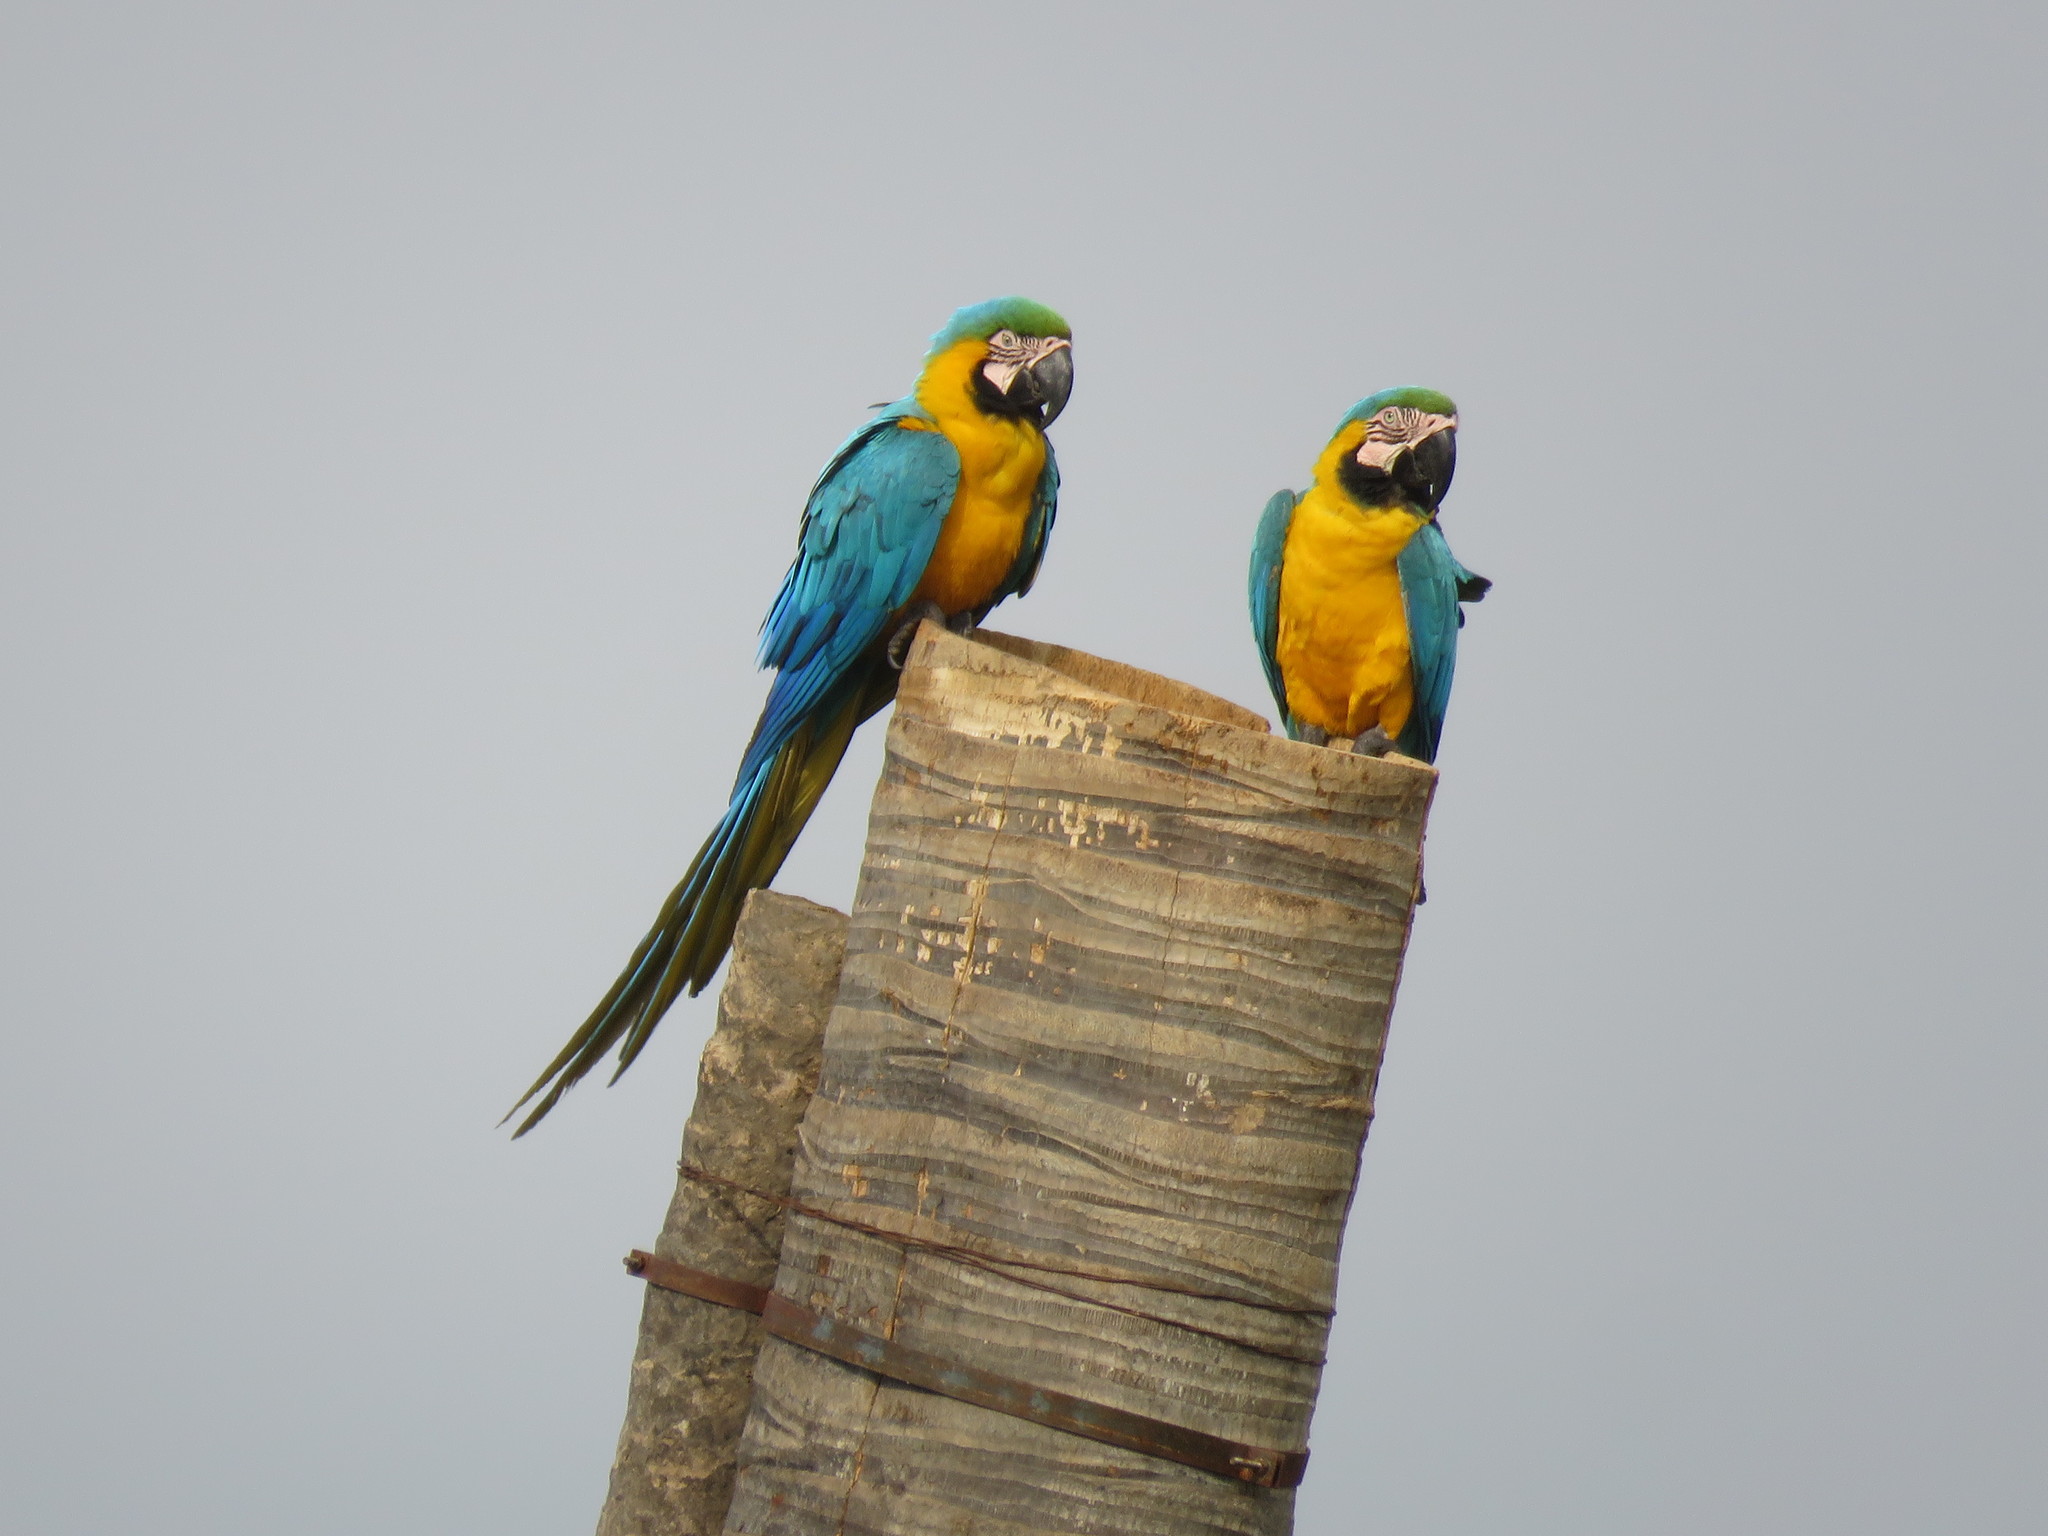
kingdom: Animalia
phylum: Chordata
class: Aves
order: Psittaciformes
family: Psittacidae
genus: Ara
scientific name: Ara ararauna
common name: Blue-and-yellow macaw
